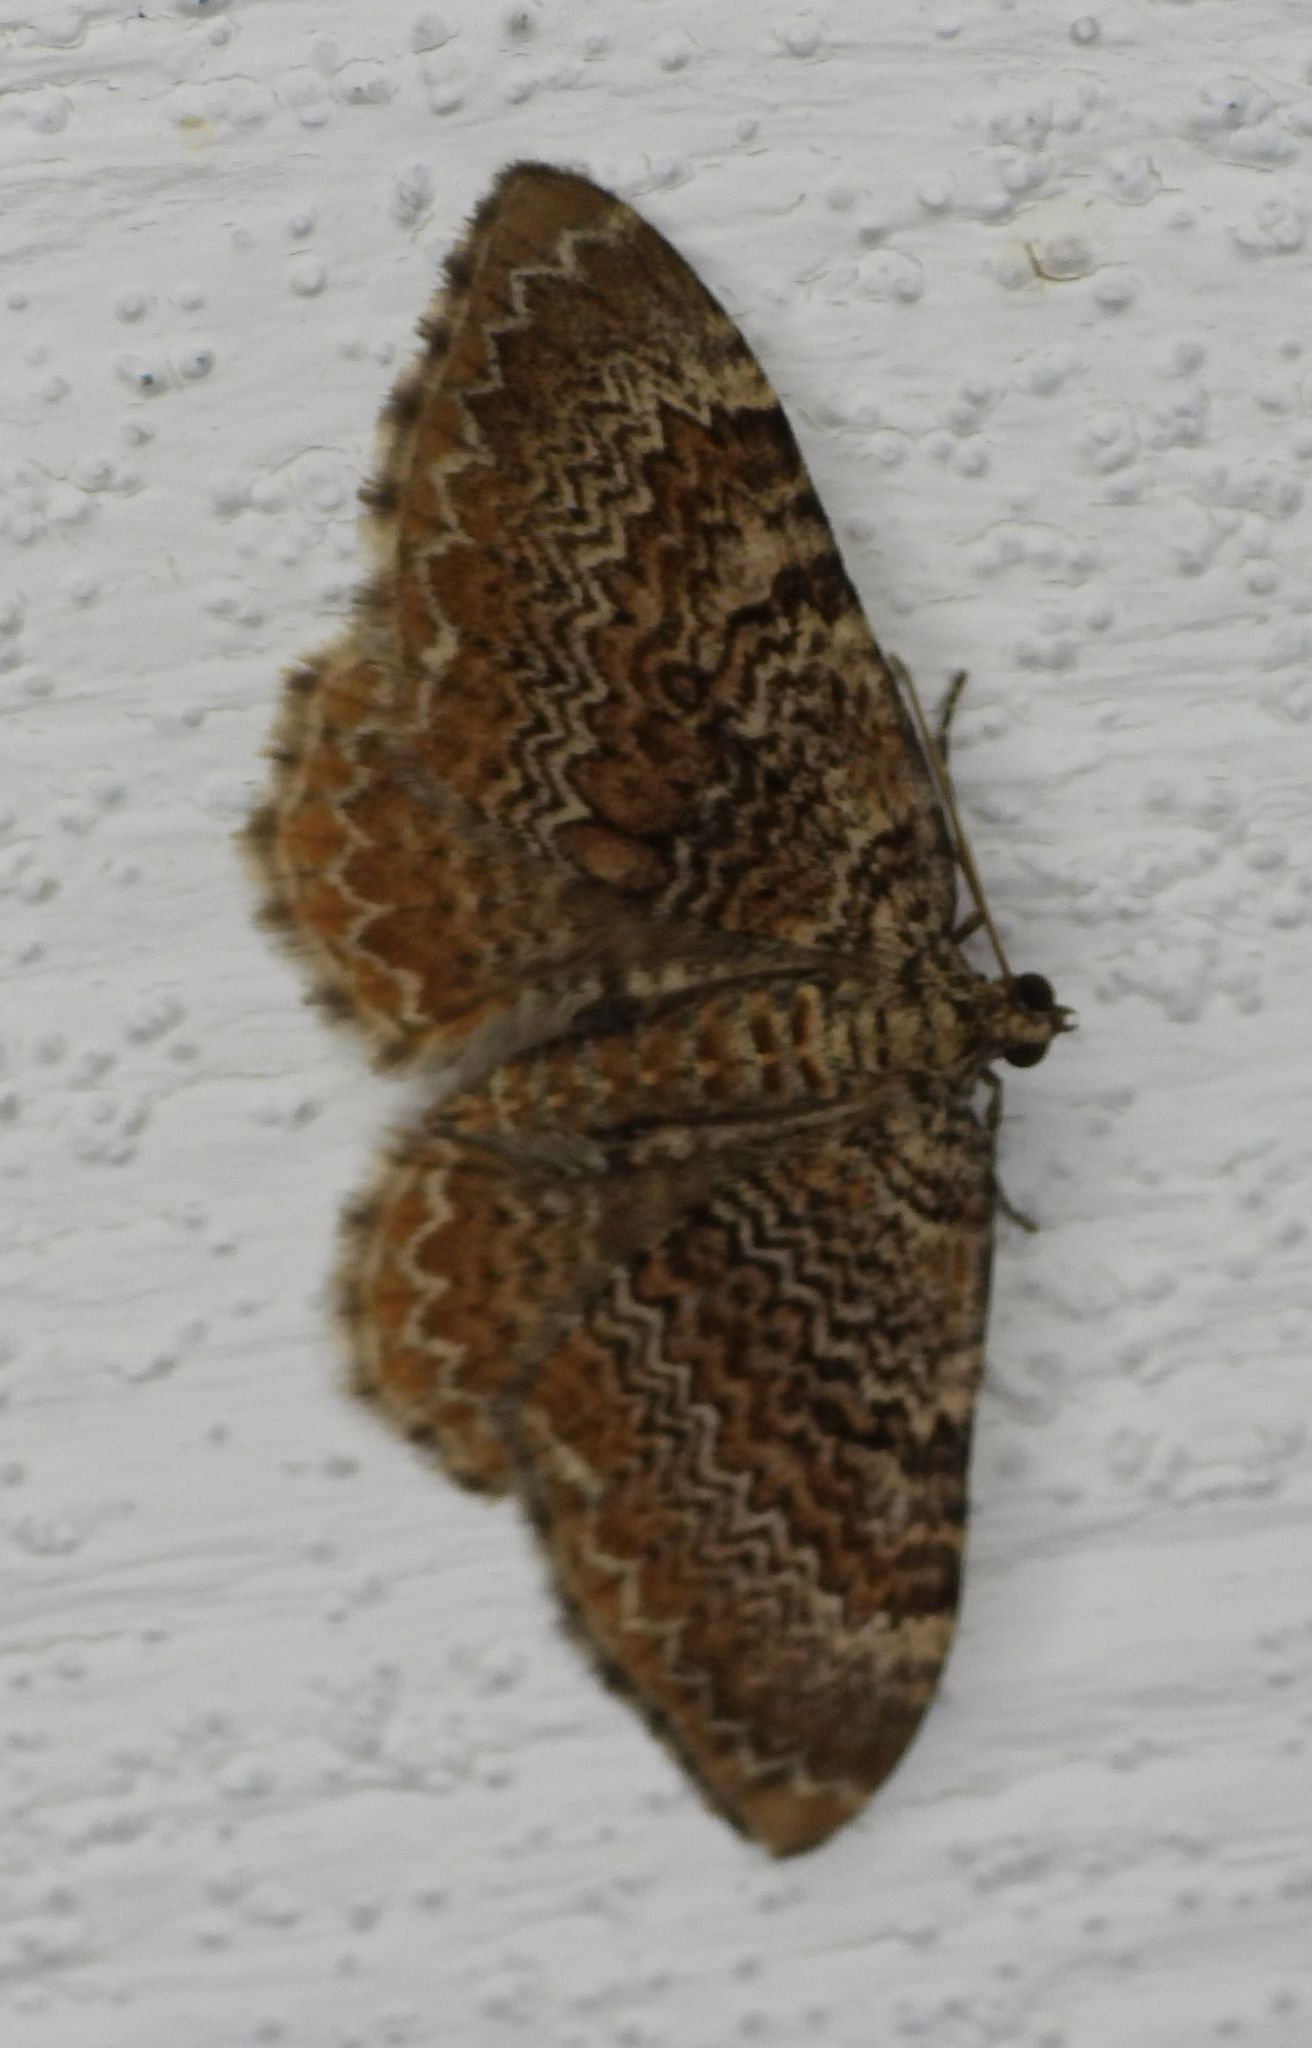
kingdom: Animalia
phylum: Arthropoda
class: Insecta
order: Lepidoptera
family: Geometridae
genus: Rheumaptera
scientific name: Rheumaptera
